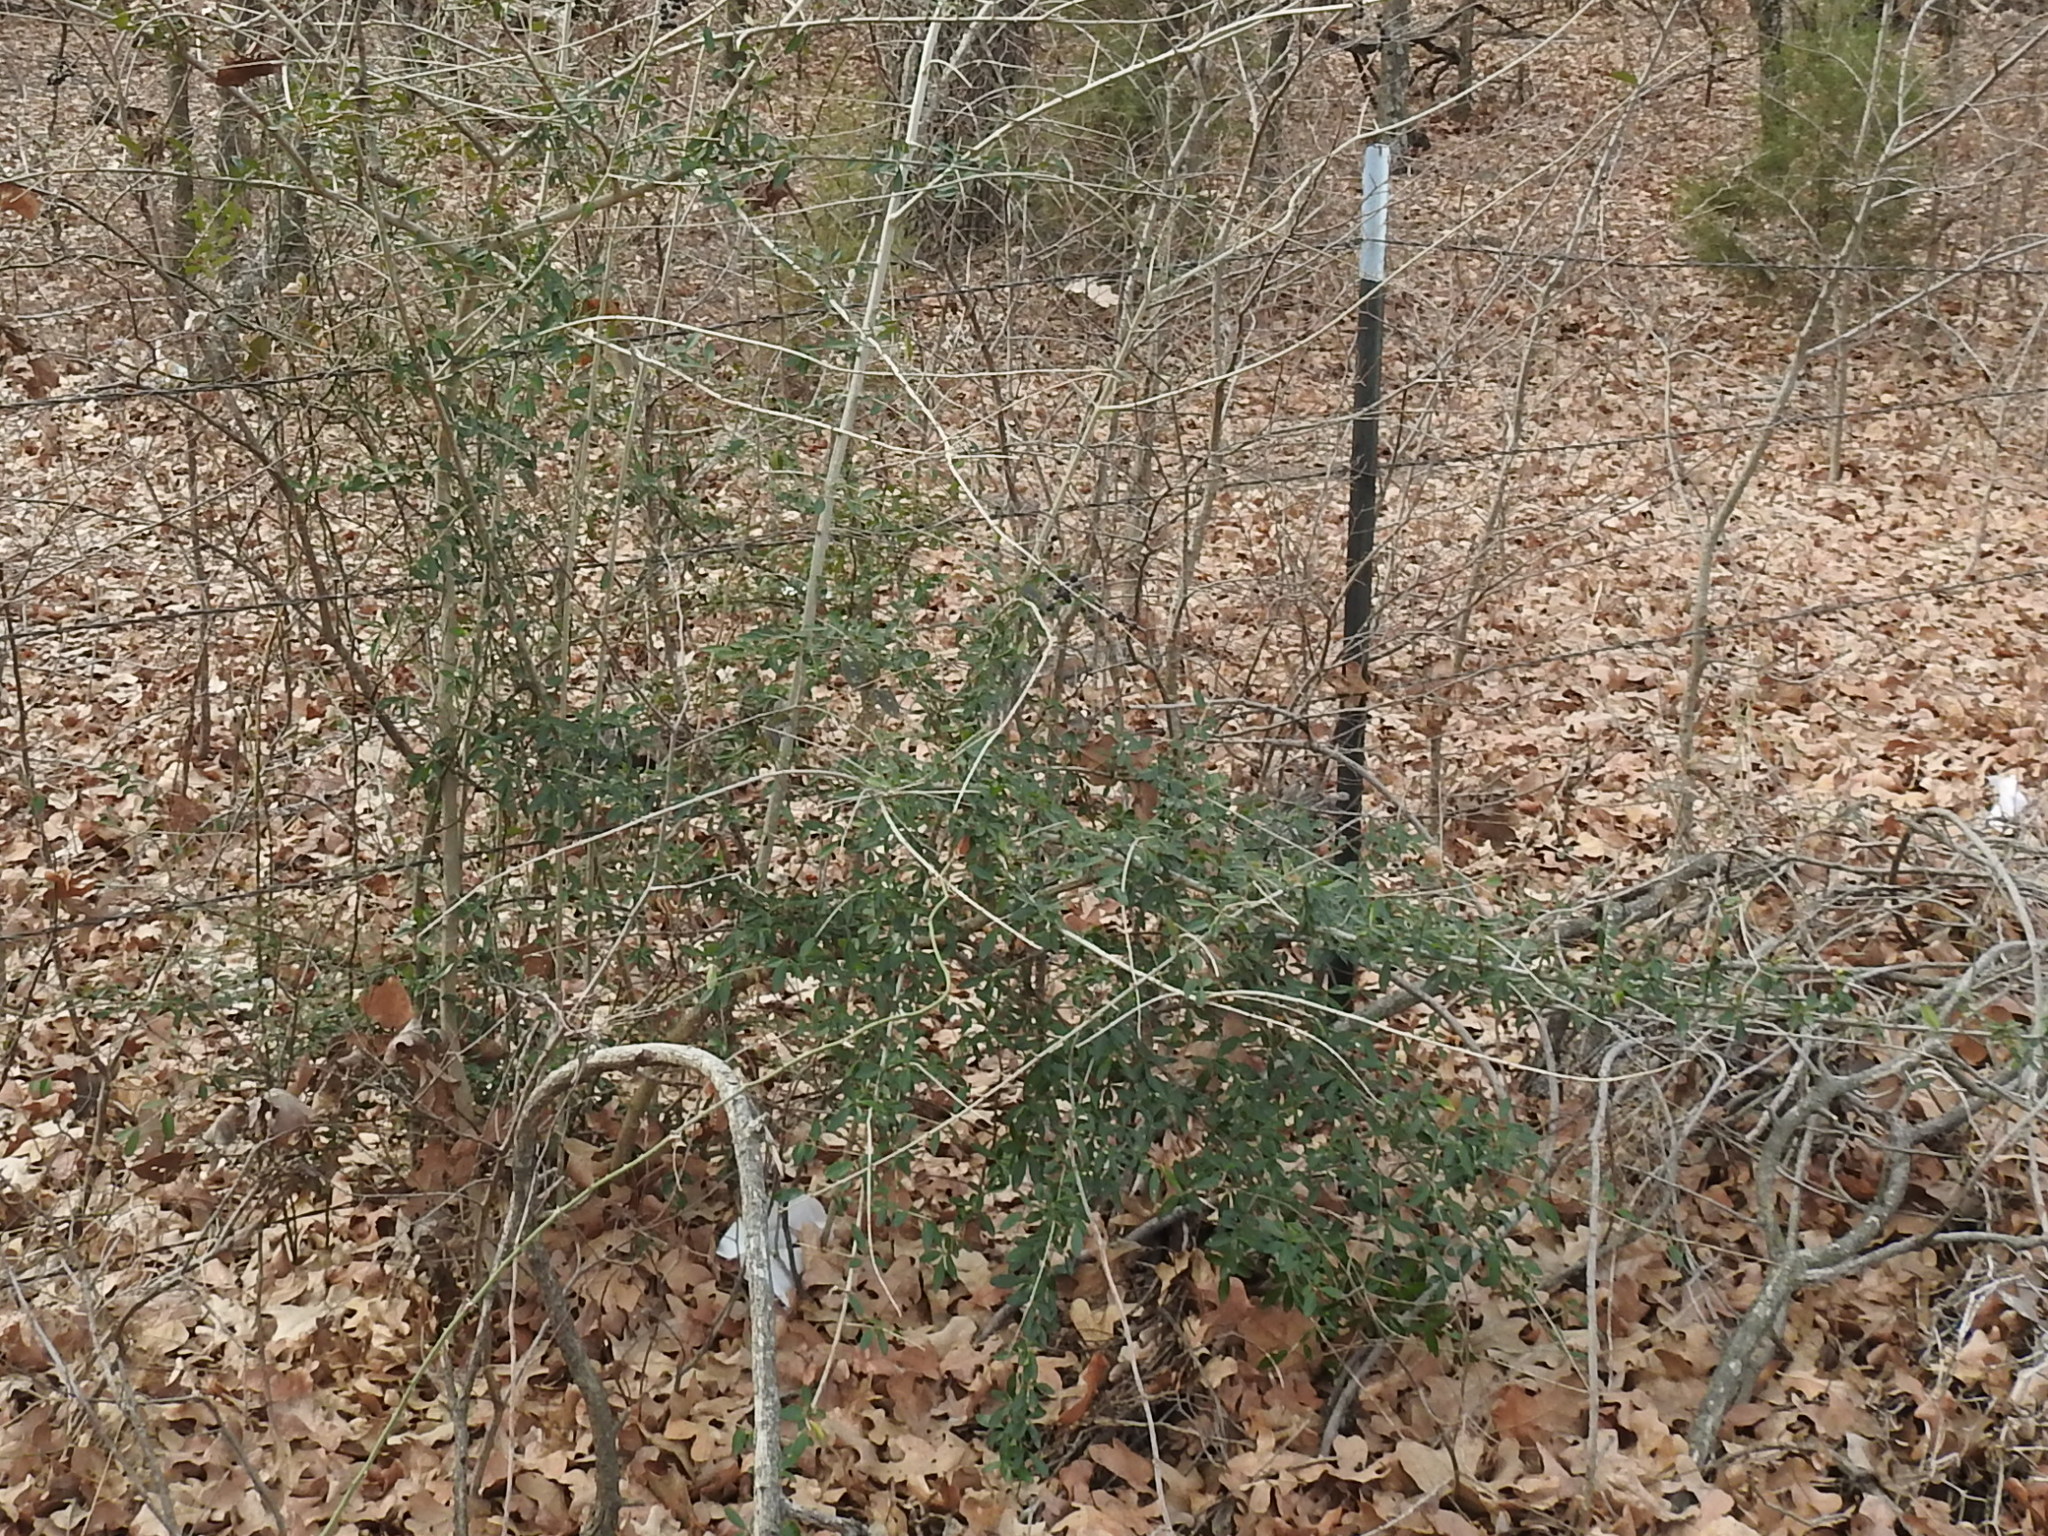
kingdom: Plantae
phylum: Tracheophyta
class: Magnoliopsida
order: Lamiales
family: Oleaceae
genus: Ligustrum
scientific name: Ligustrum quihoui
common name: Waxyleaf privet
